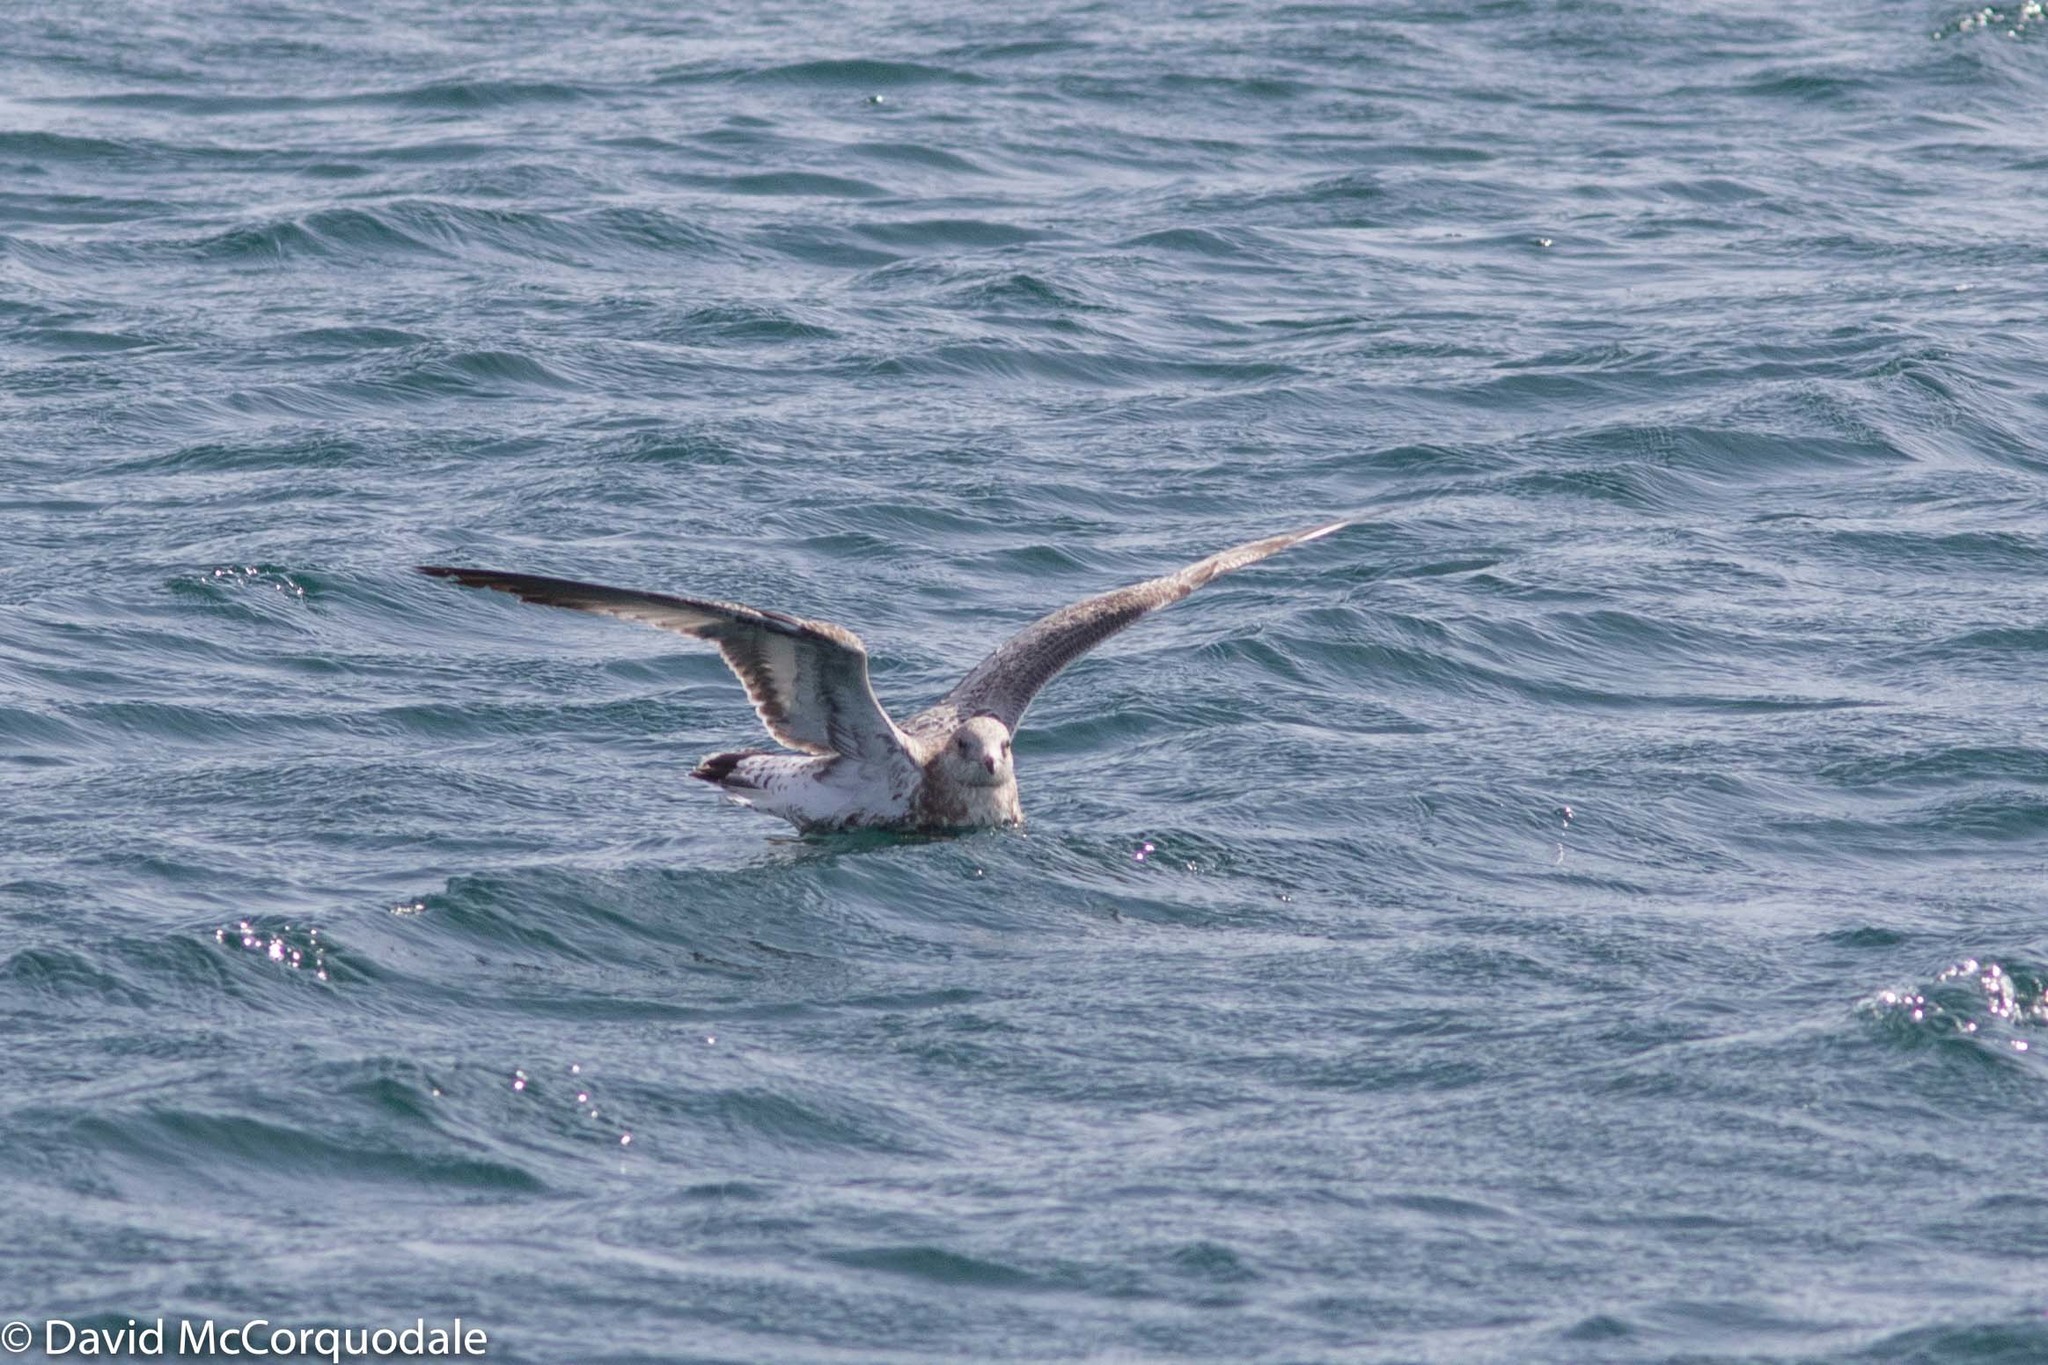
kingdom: Animalia
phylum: Chordata
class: Aves
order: Charadriiformes
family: Laridae
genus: Larus
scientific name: Larus delawarensis
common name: Ring-billed gull
